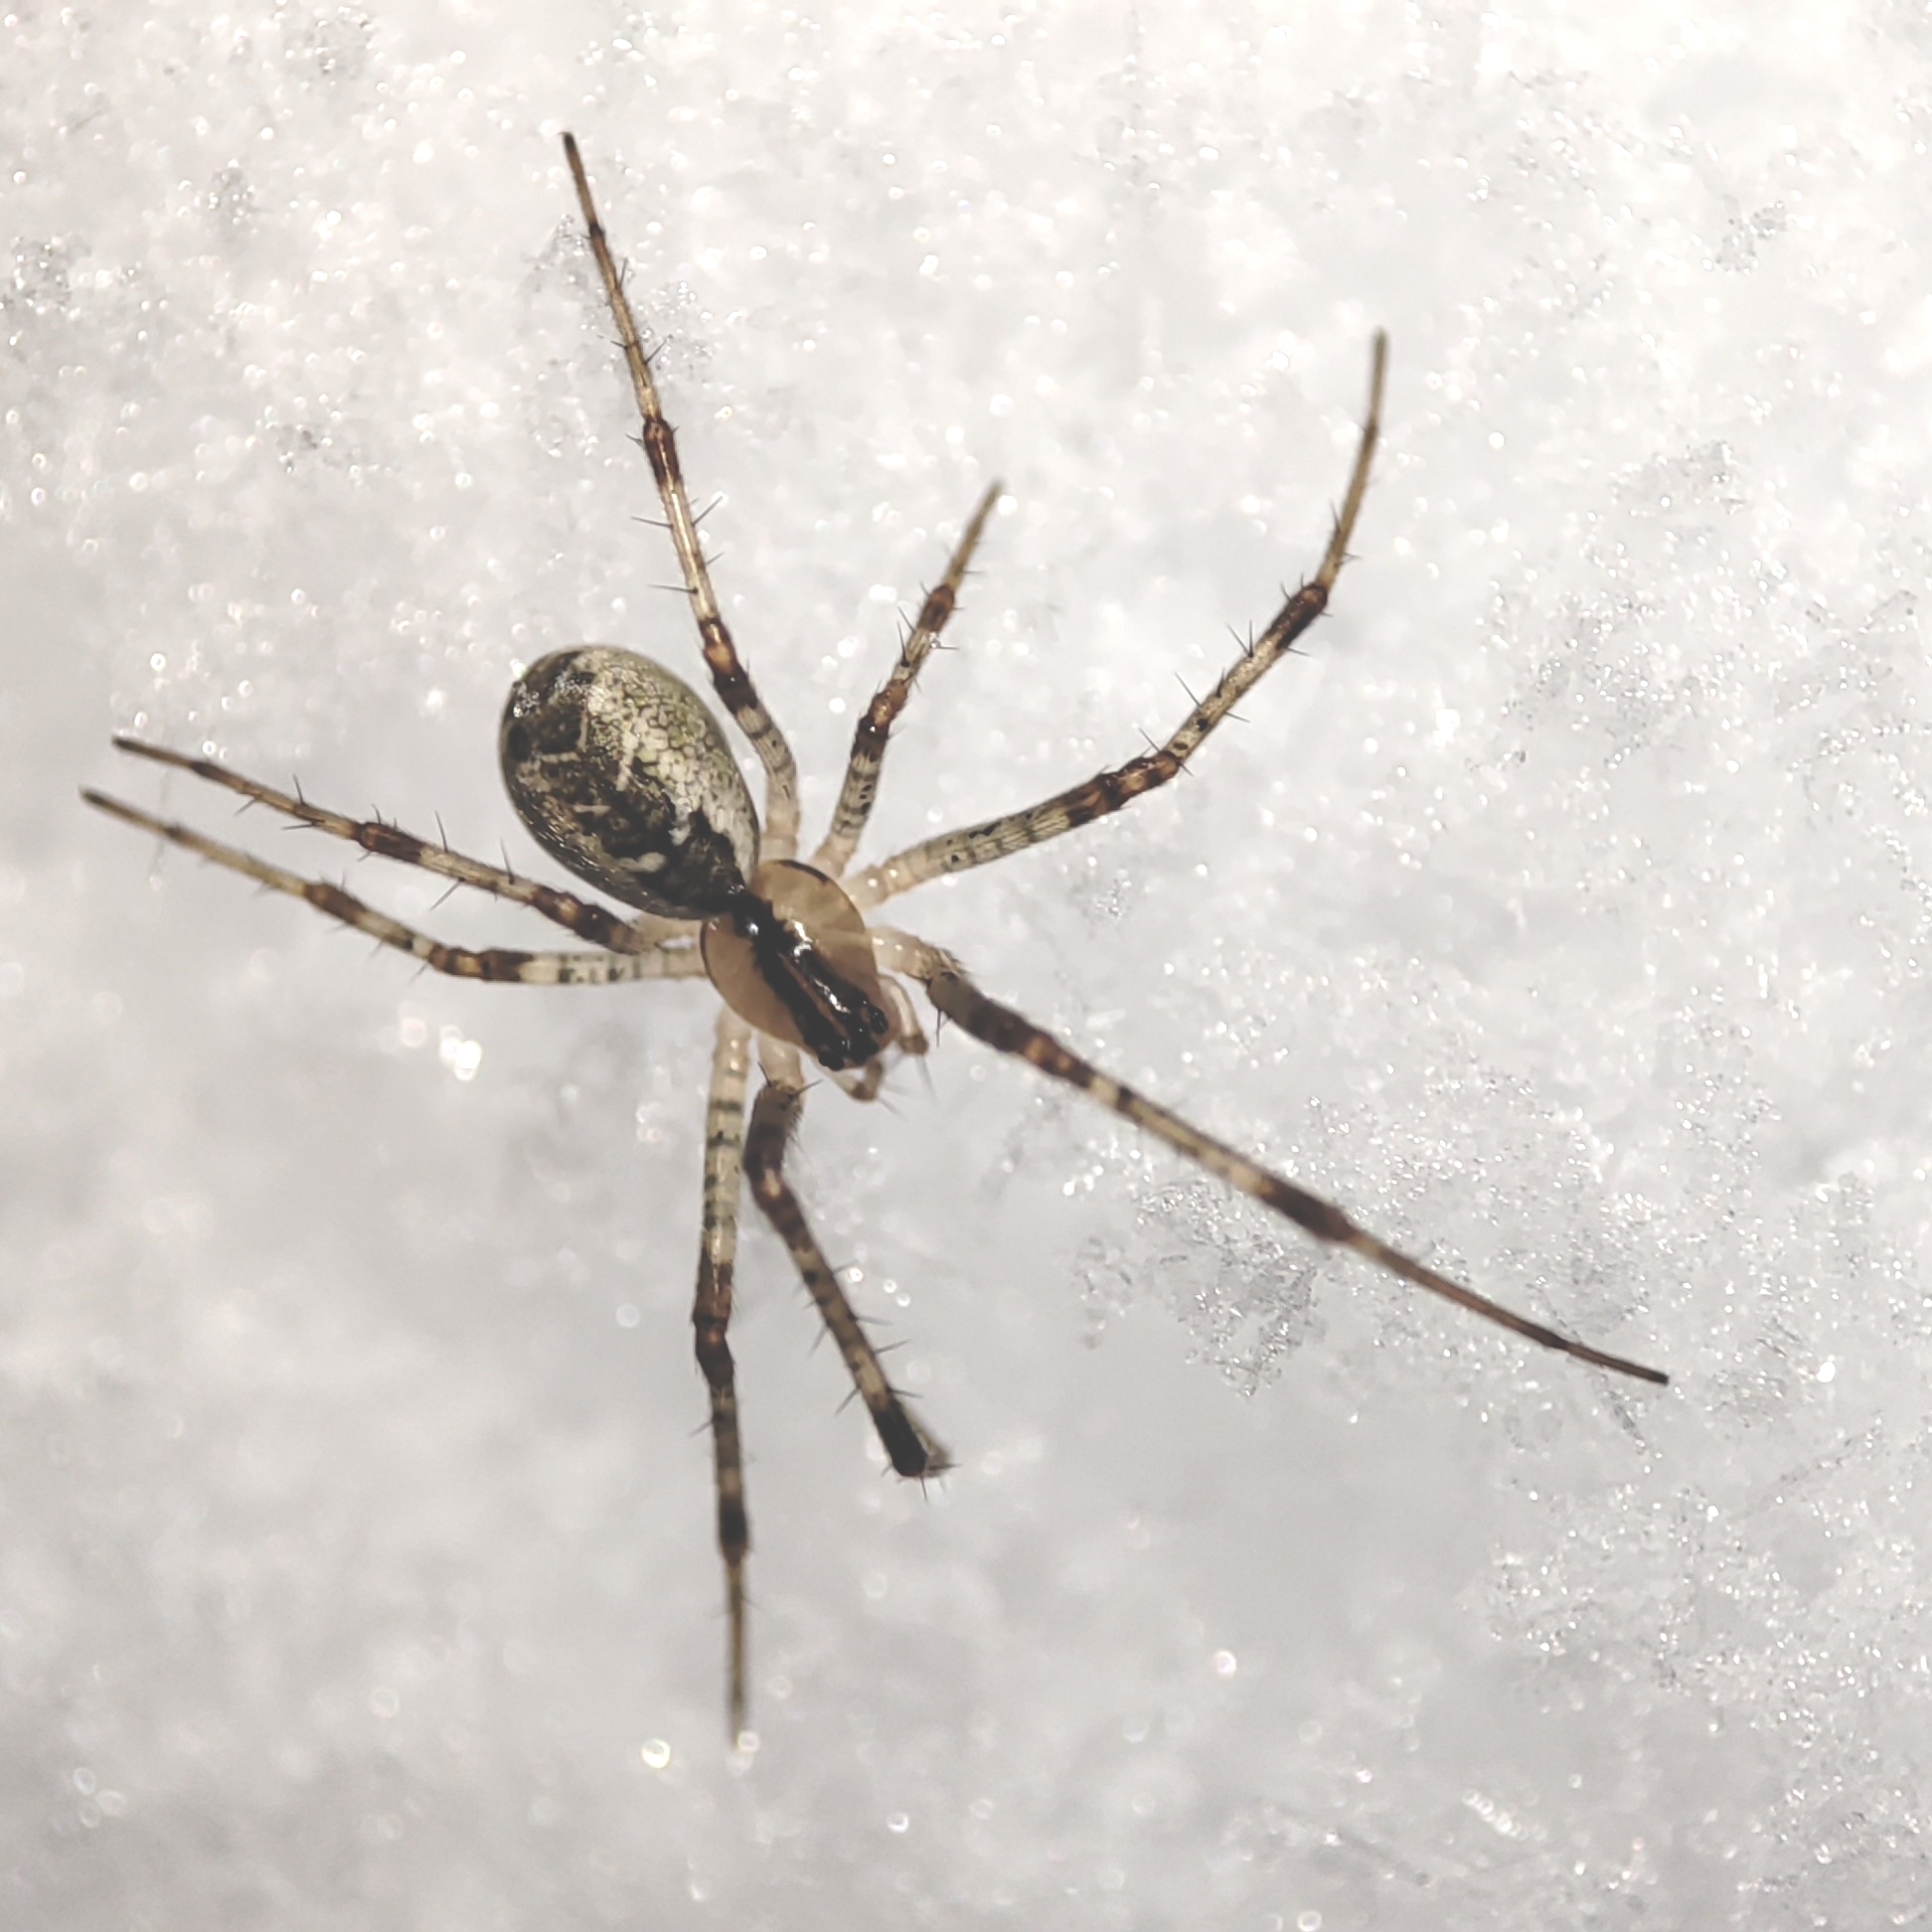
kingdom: Animalia
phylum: Arthropoda
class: Arachnida
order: Araneae
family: Linyphiidae
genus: Pityohyphantes
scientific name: Pityohyphantes phrygianus
